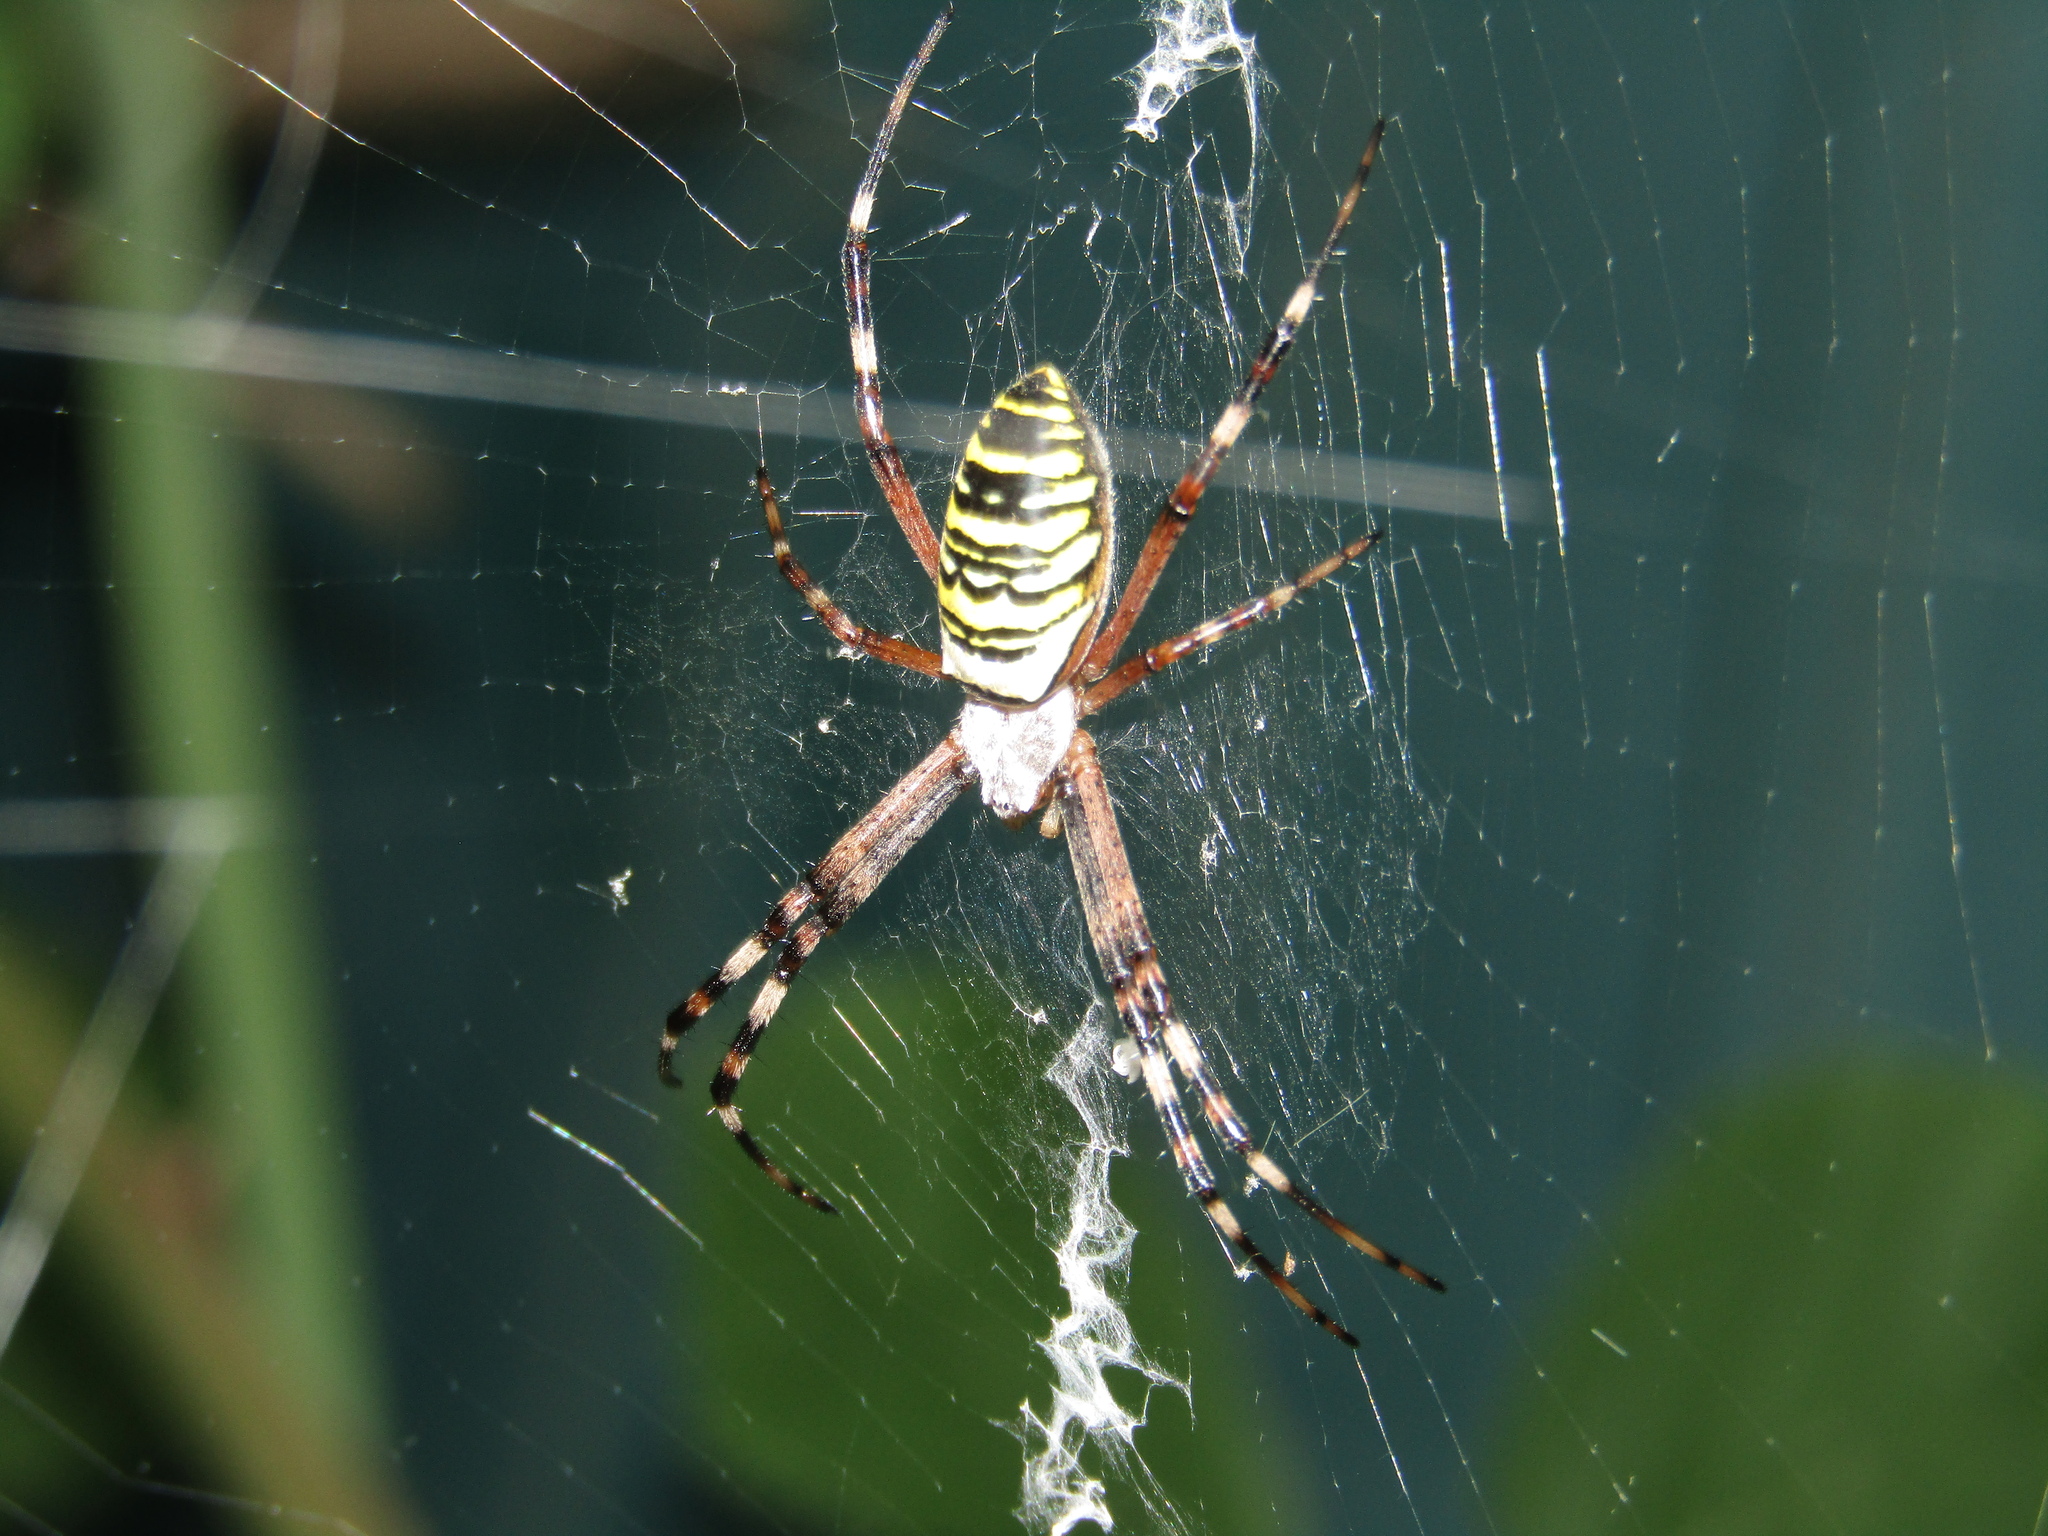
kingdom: Animalia
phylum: Arthropoda
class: Arachnida
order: Araneae
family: Araneidae
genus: Argiope
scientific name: Argiope bruennichi
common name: Wasp spider
